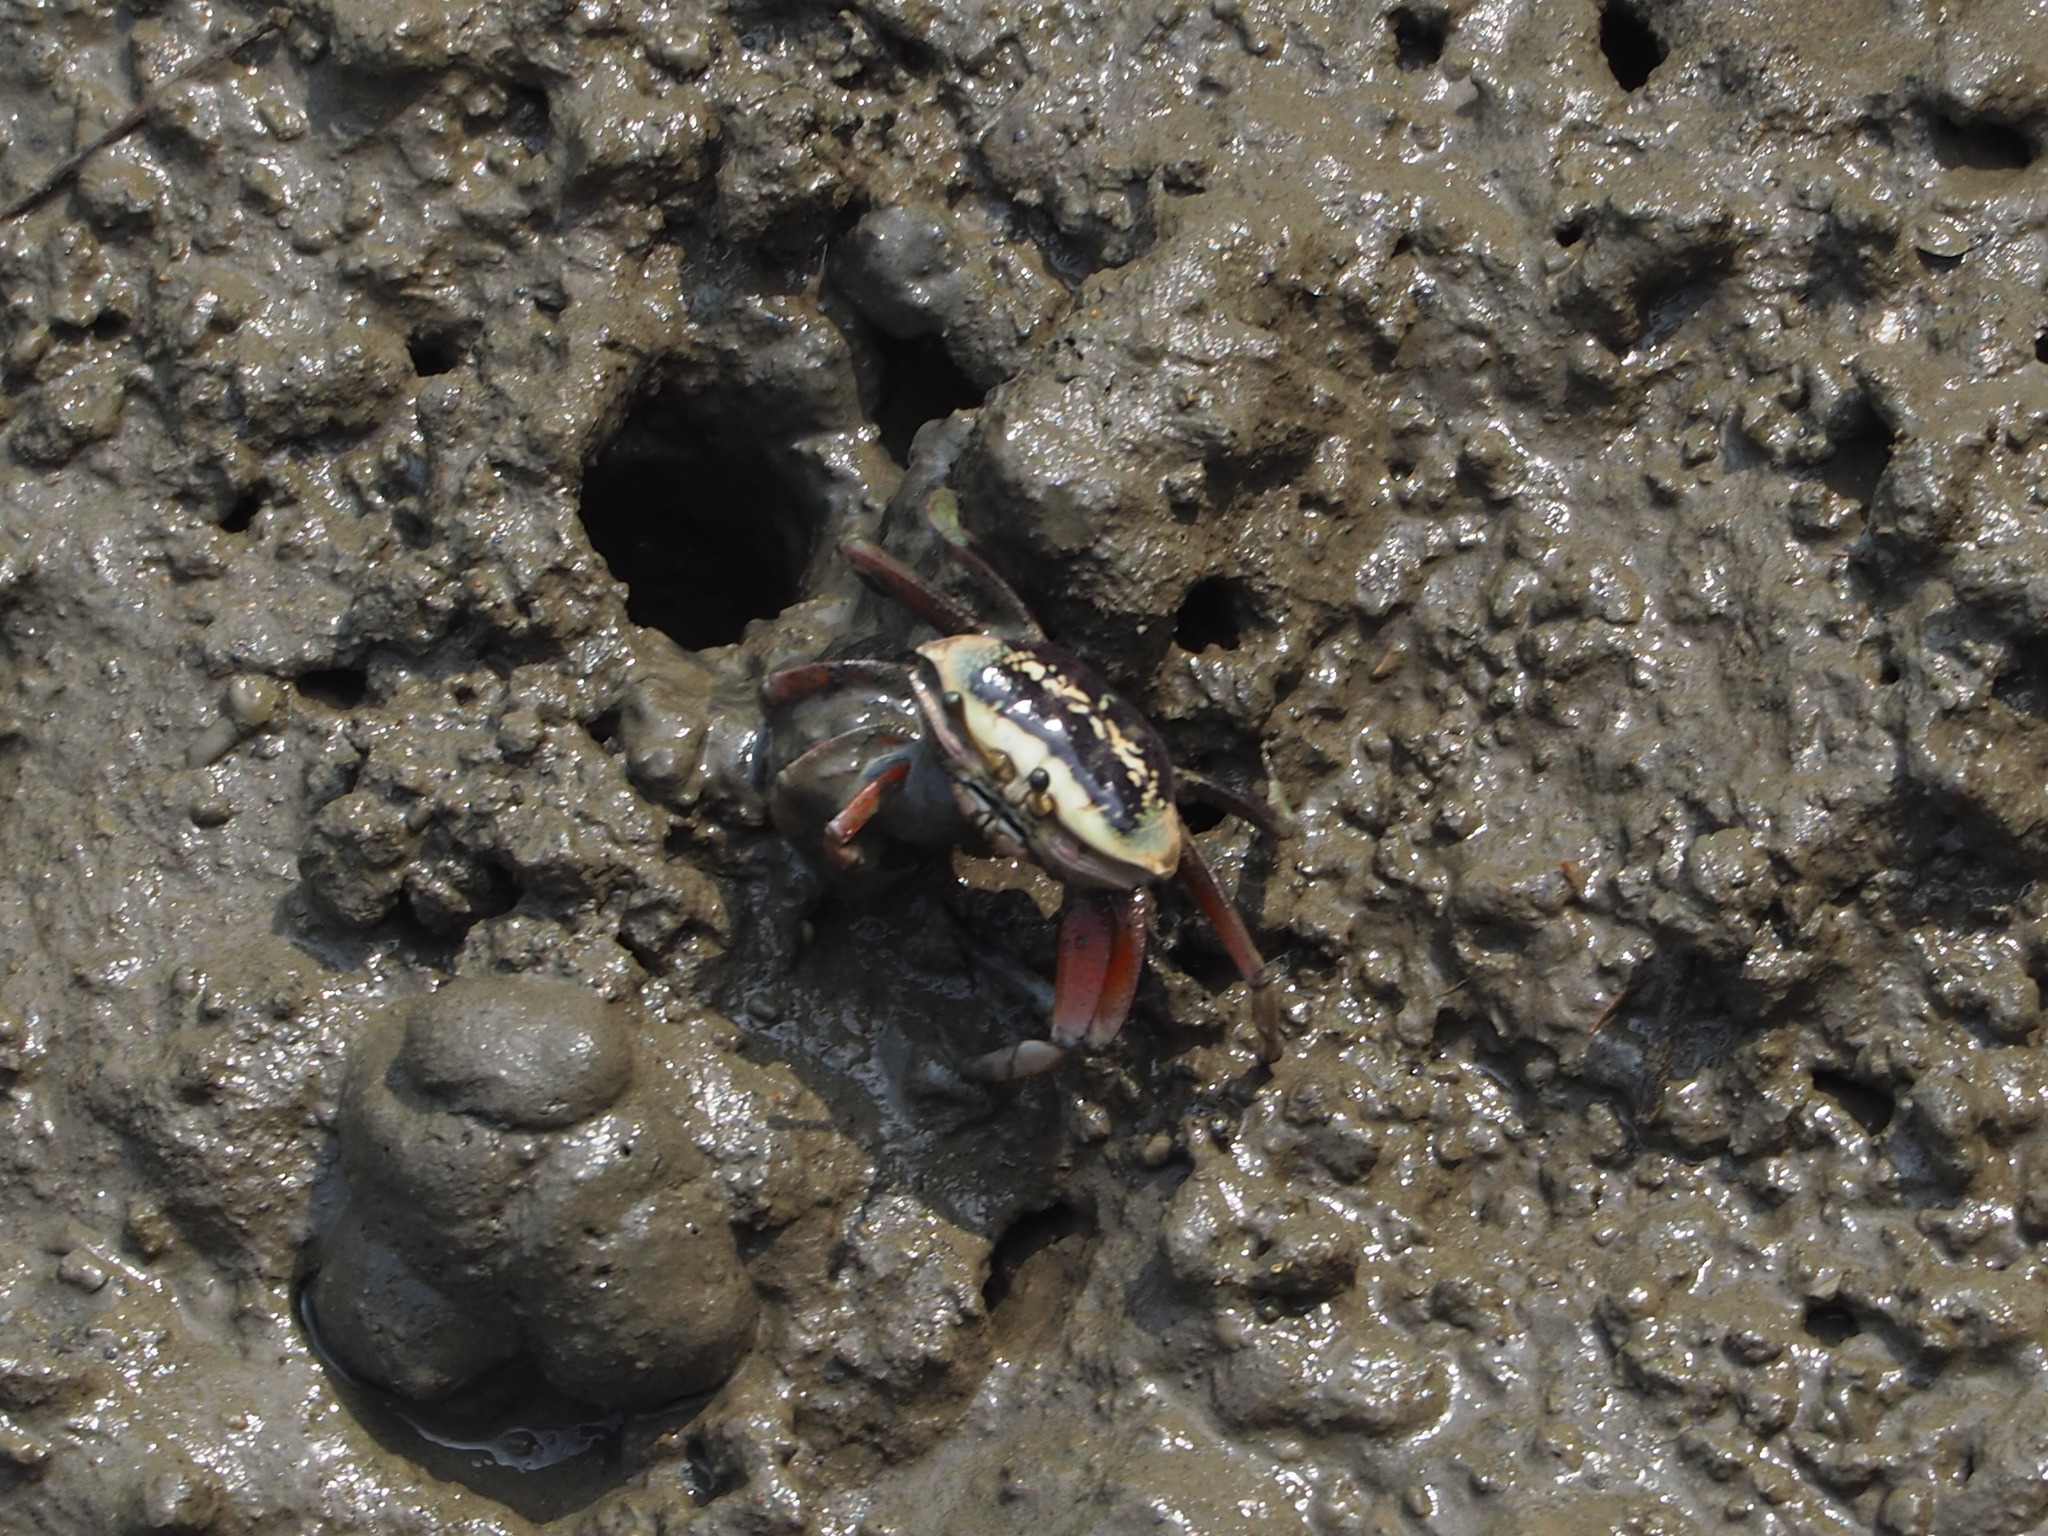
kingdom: Animalia
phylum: Arthropoda
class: Malacostraca
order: Decapoda
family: Ocypodidae
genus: Tubuca
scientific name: Tubuca arcuata
